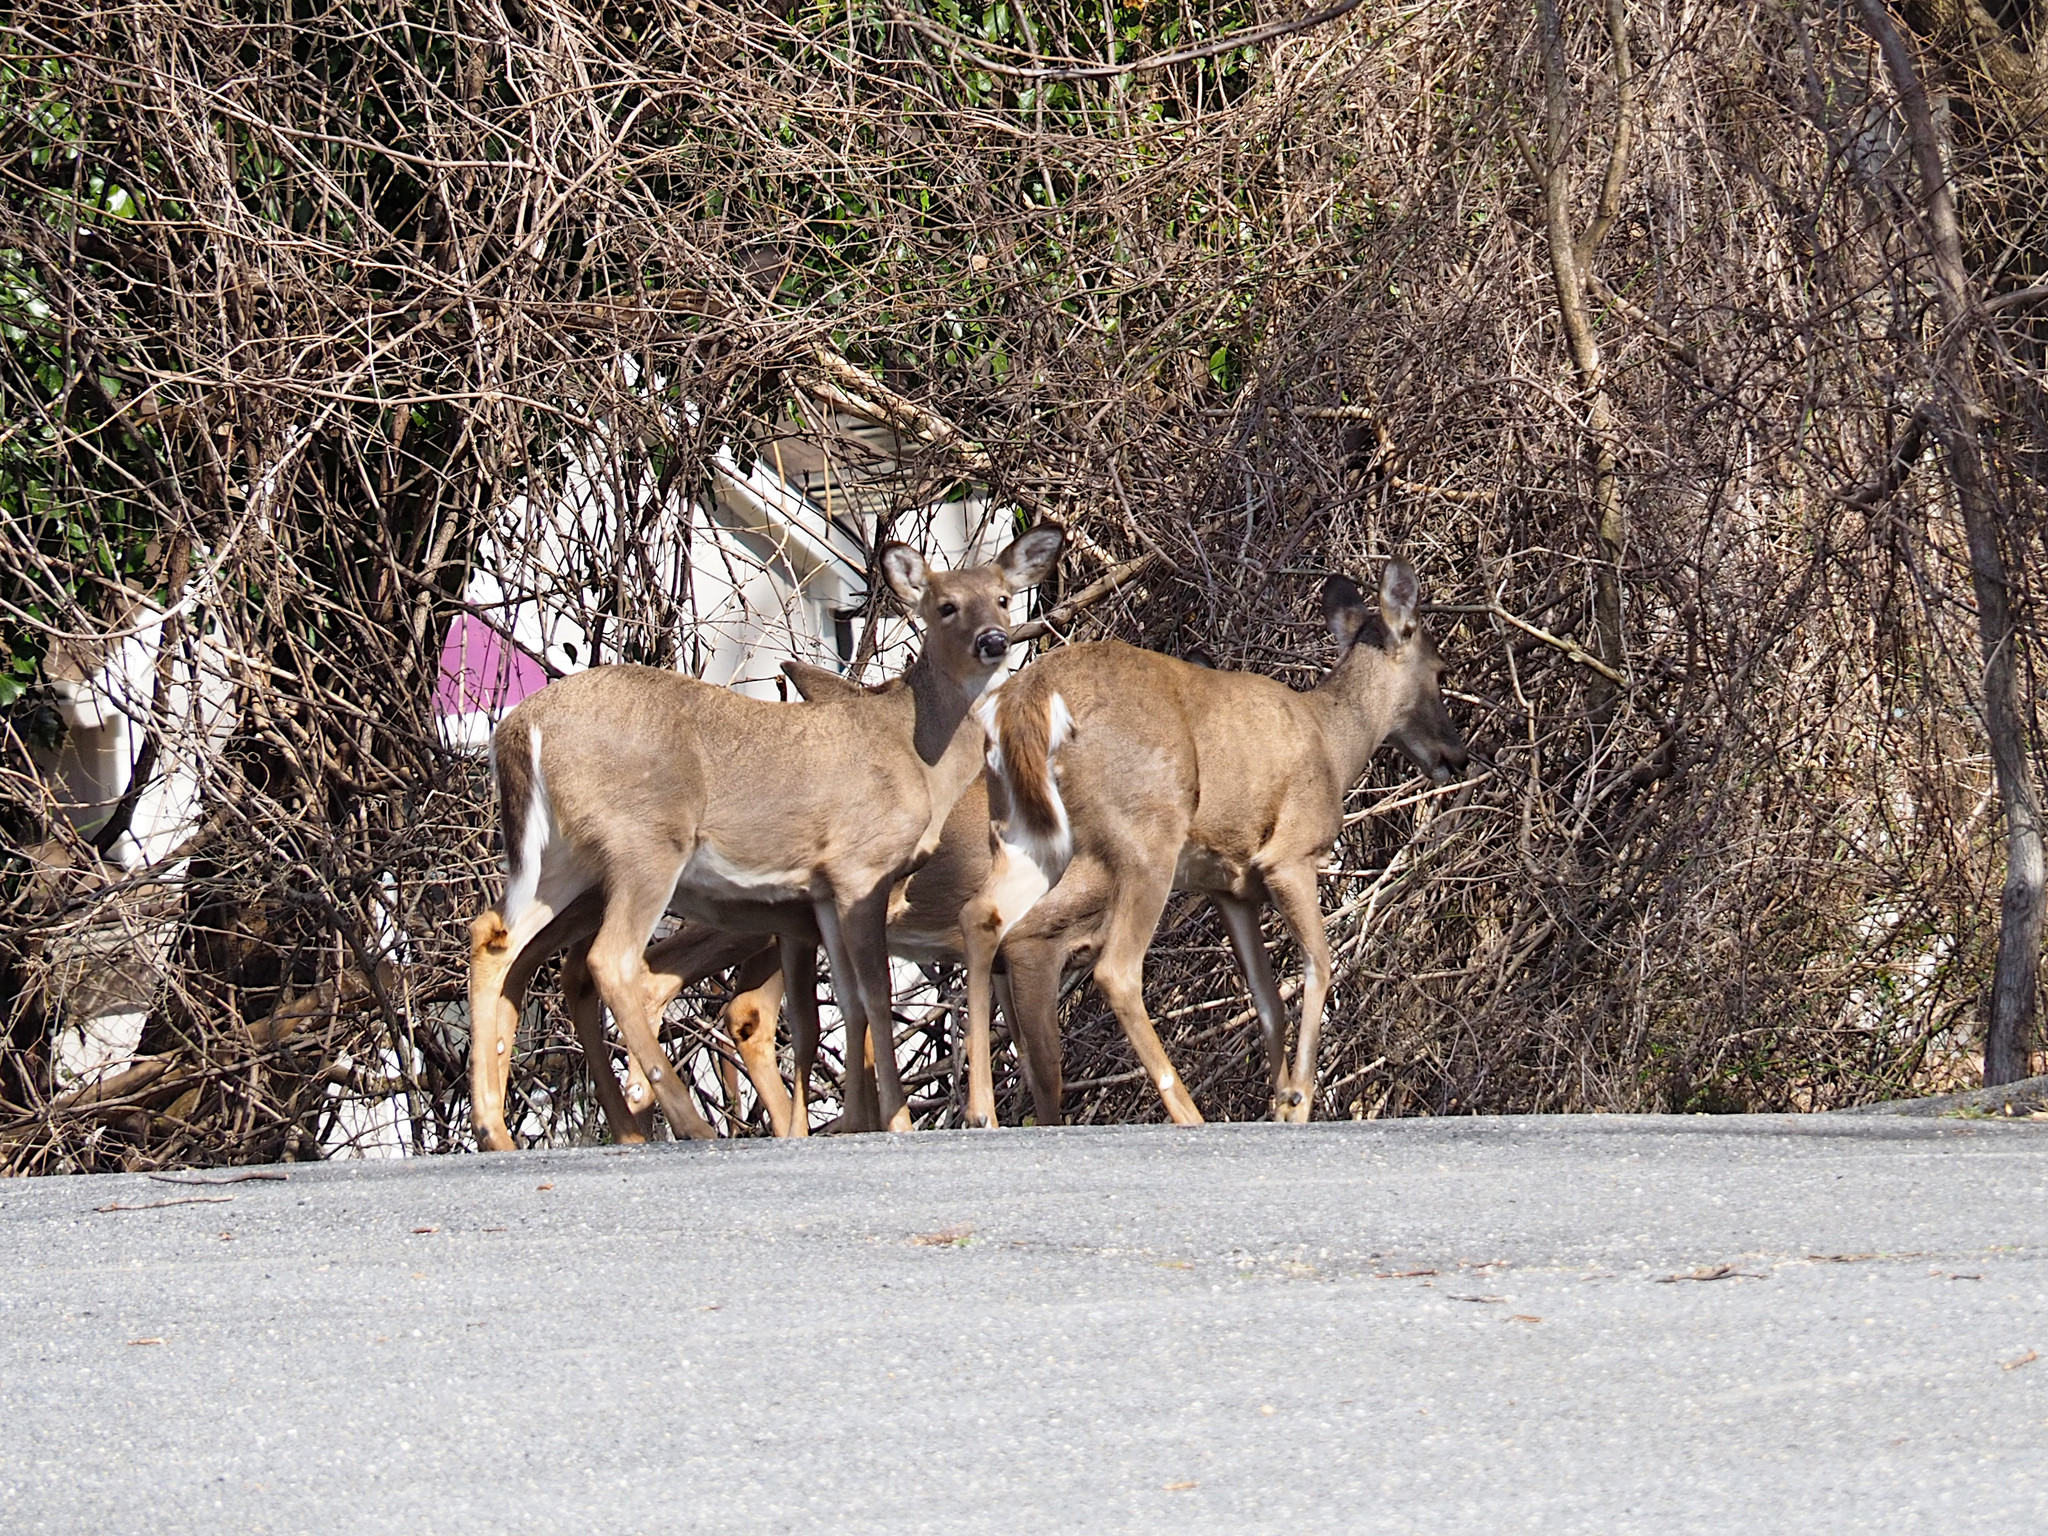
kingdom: Animalia
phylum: Chordata
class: Mammalia
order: Artiodactyla
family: Cervidae
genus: Odocoileus
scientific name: Odocoileus virginianus
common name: White-tailed deer
